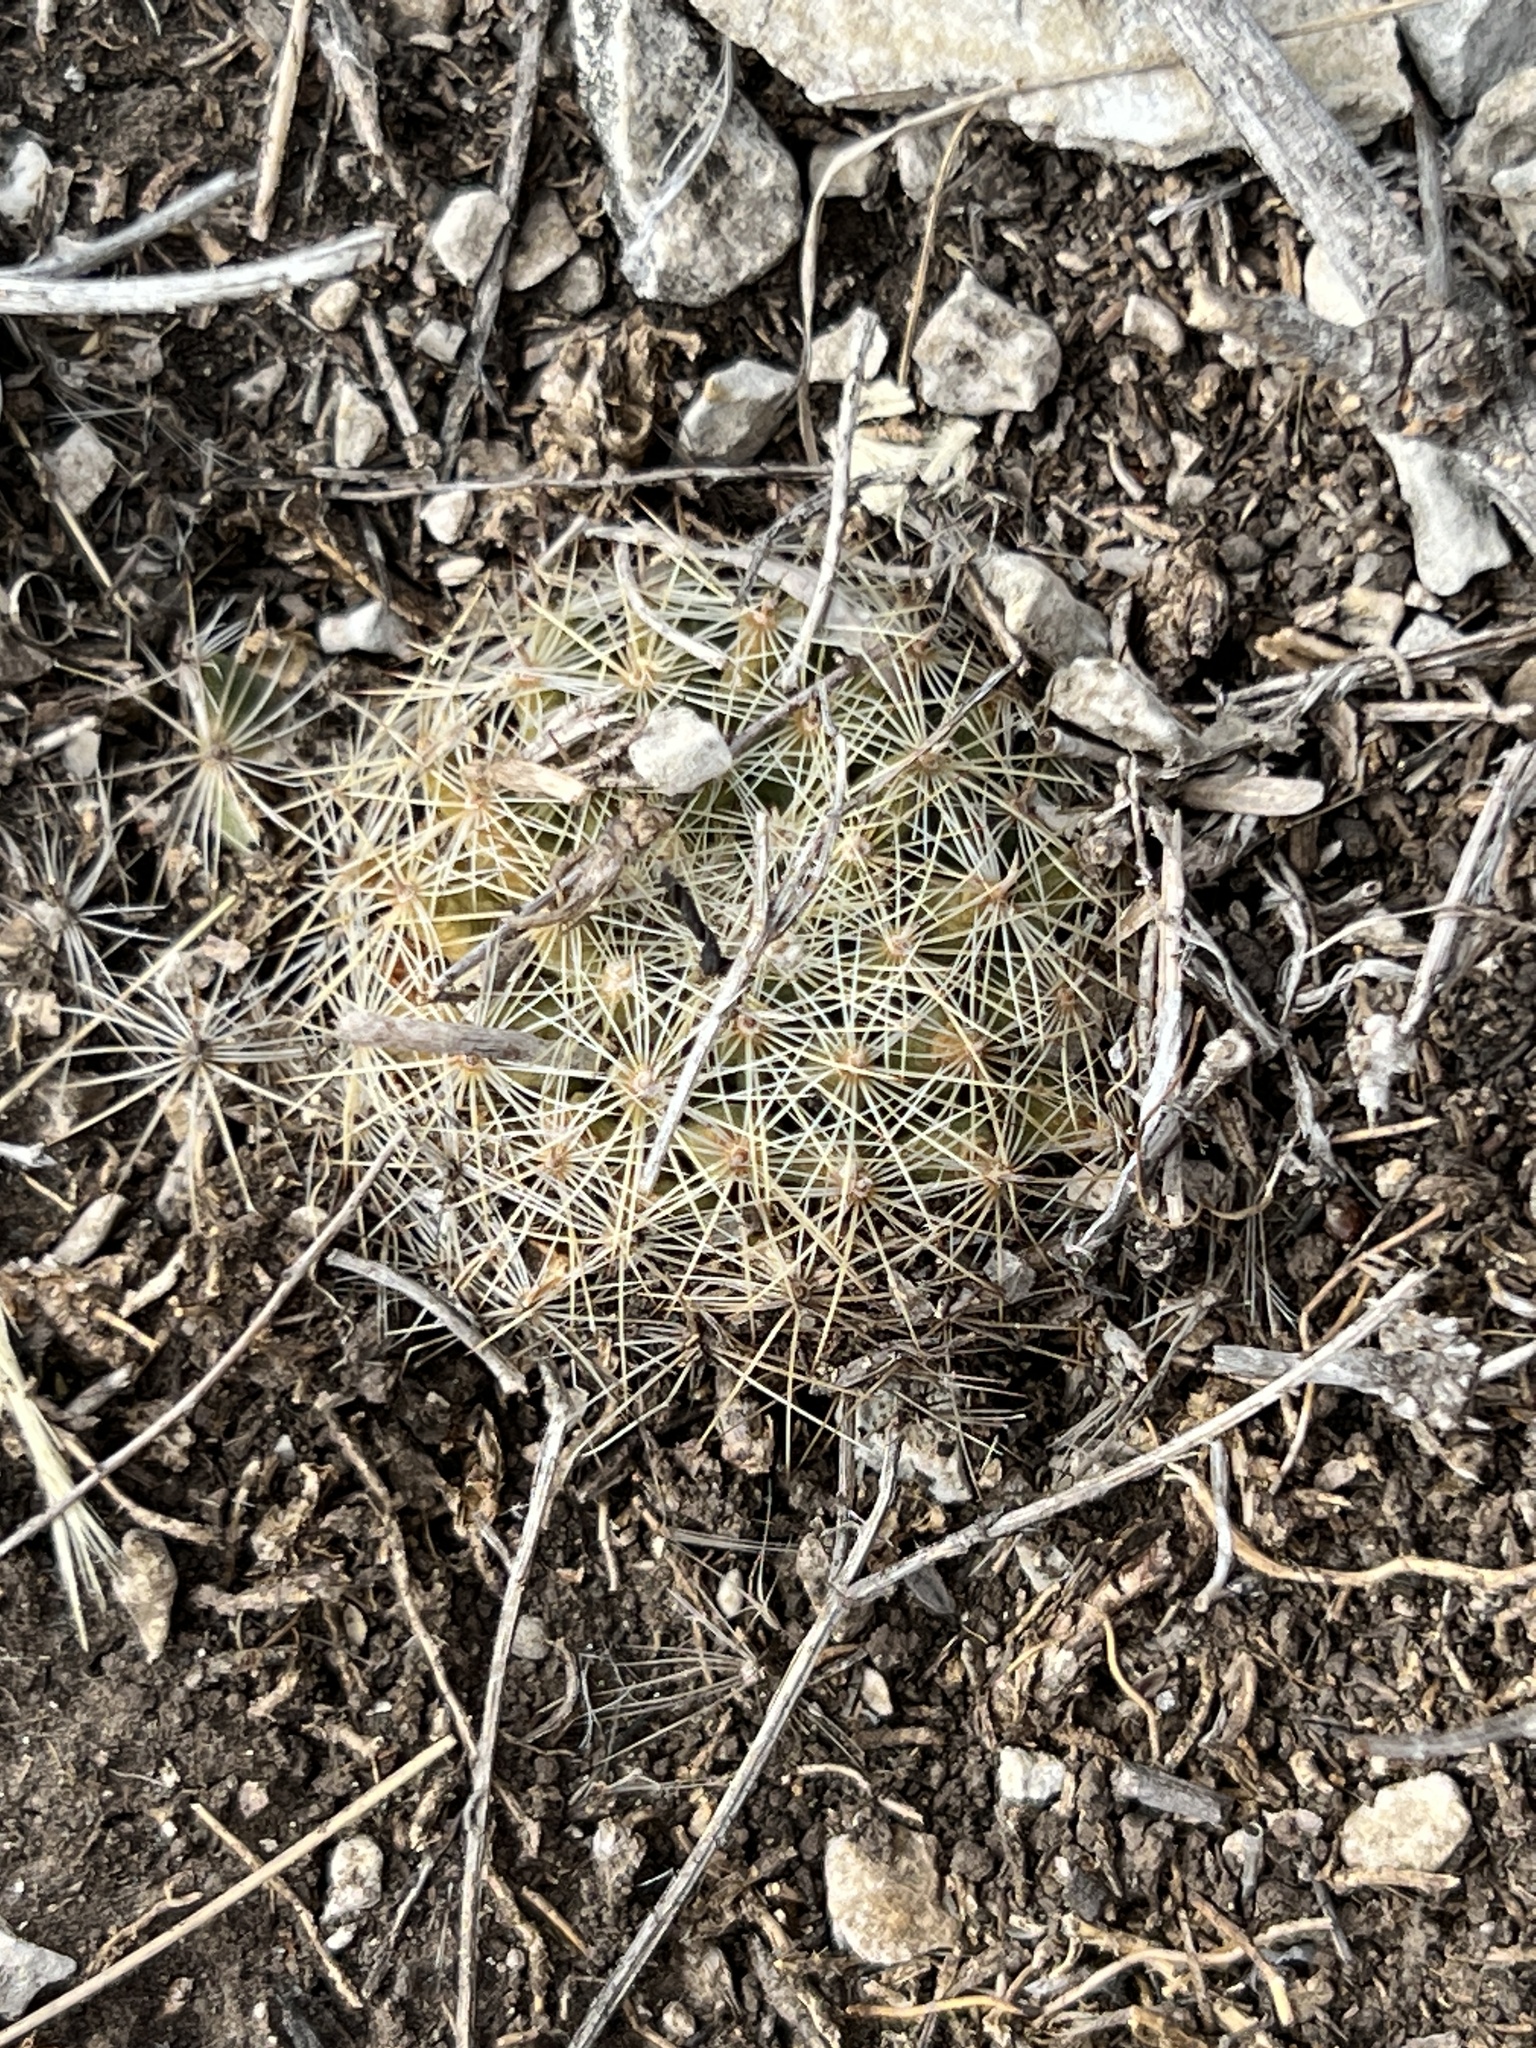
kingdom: Plantae
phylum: Tracheophyta
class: Magnoliopsida
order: Caryophyllales
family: Cactaceae
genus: Mammillaria
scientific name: Mammillaria heyderi
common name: Little nipple cactus
